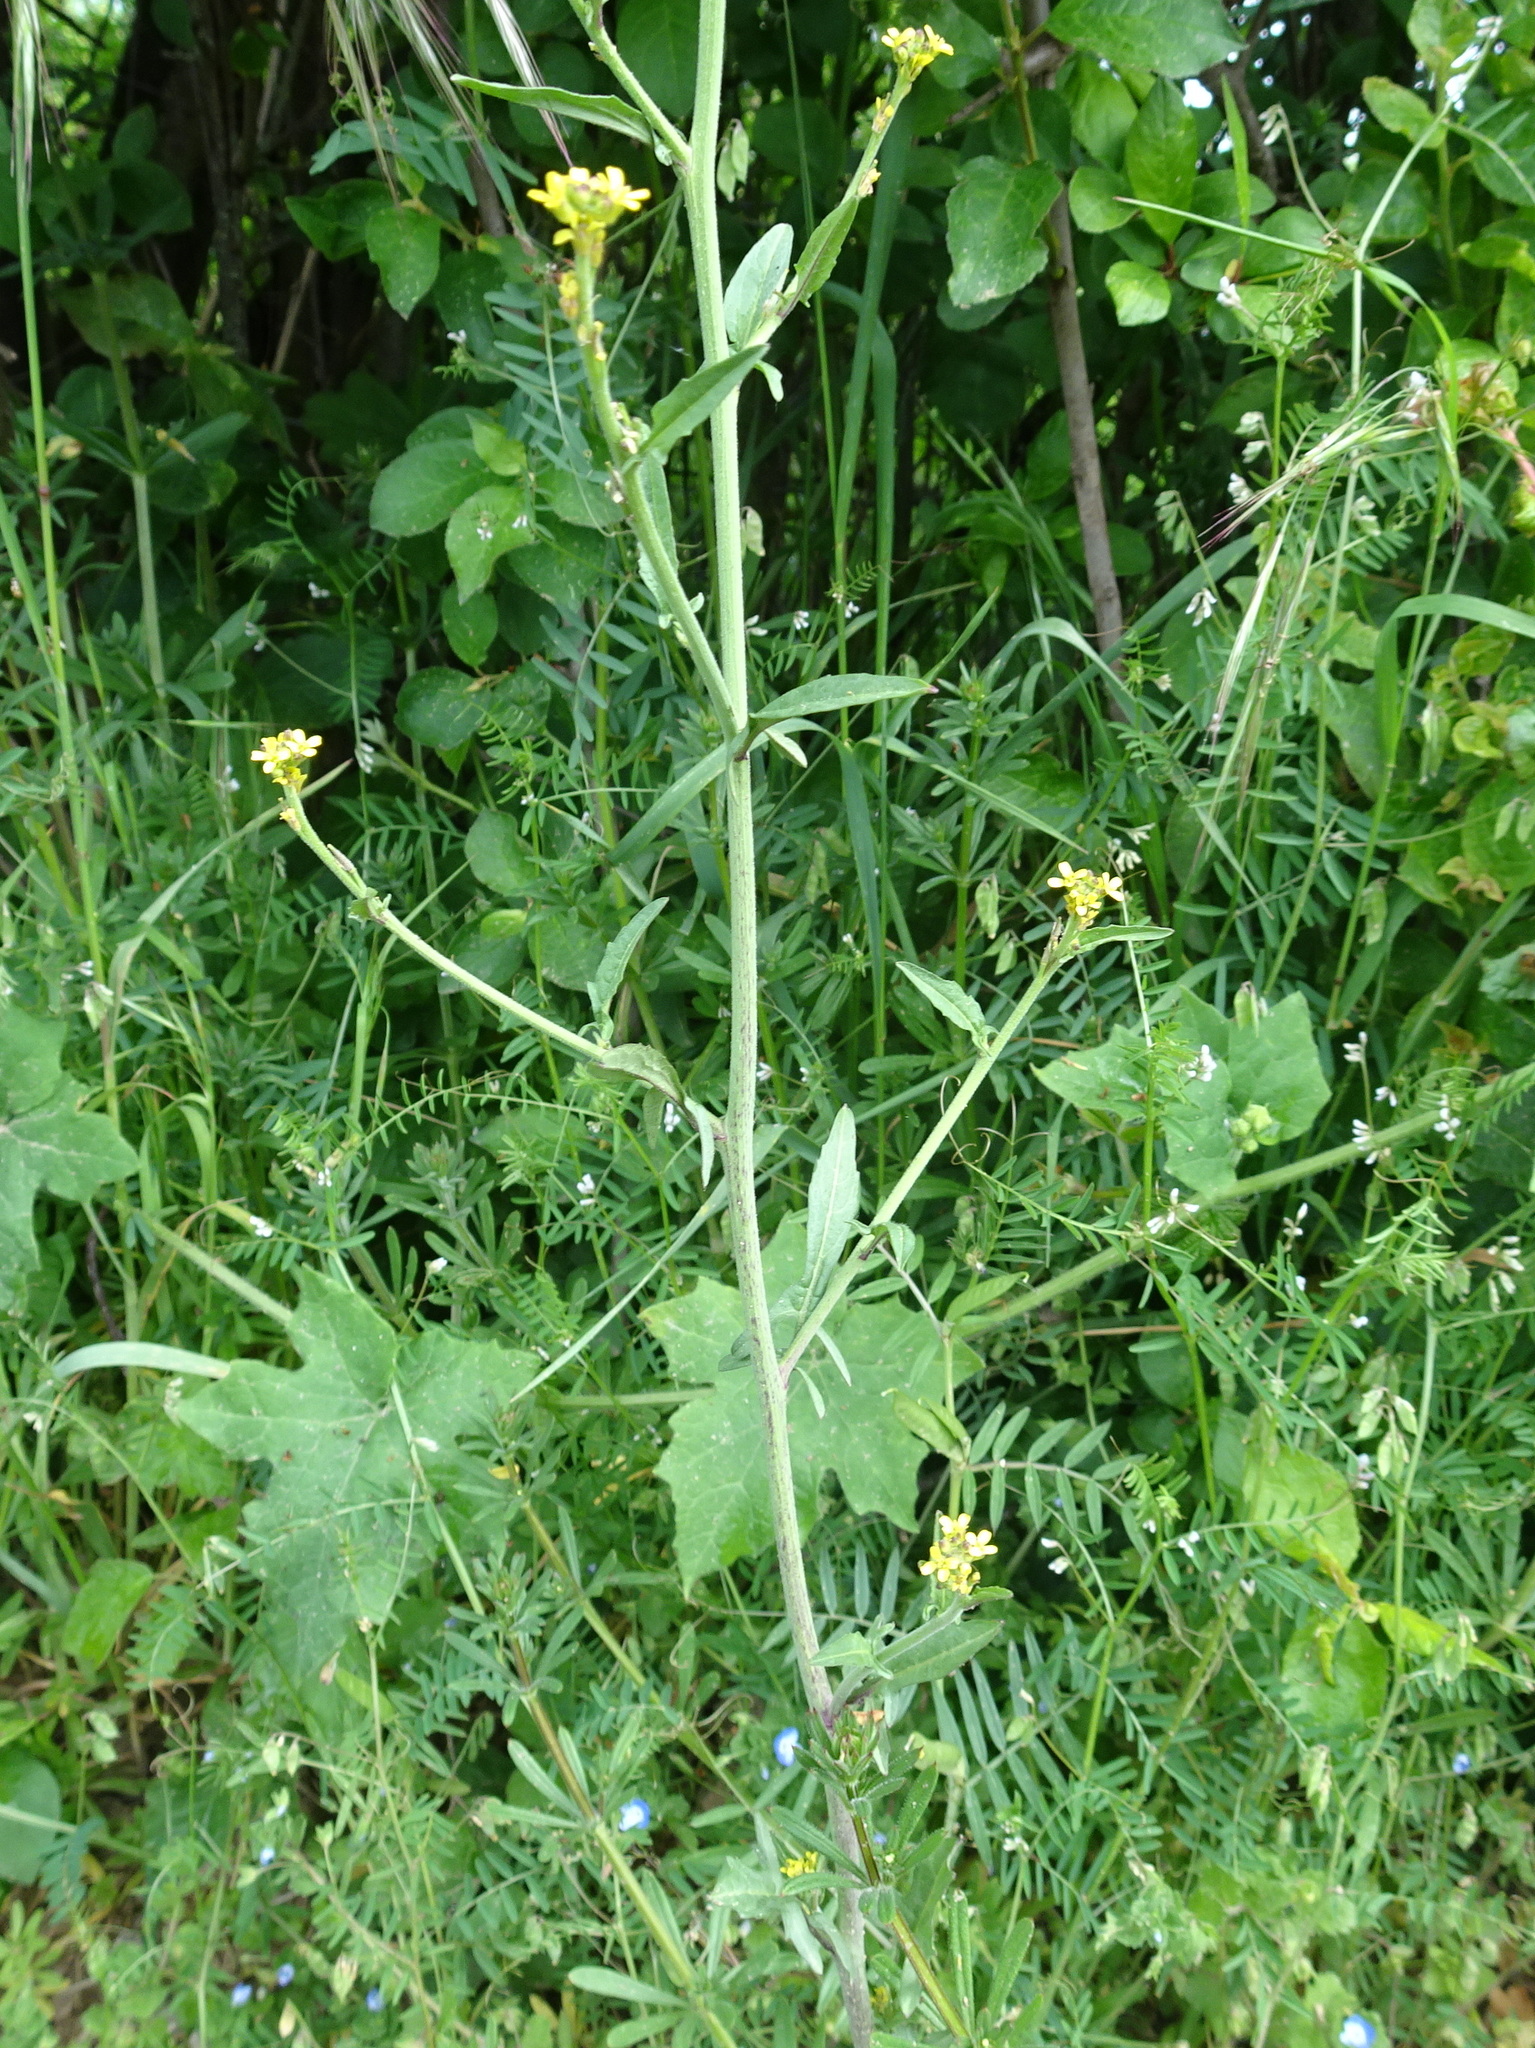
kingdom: Plantae
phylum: Tracheophyta
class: Magnoliopsida
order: Brassicales
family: Brassicaceae
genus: Sisymbrium
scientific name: Sisymbrium officinale
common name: Hedge mustard
